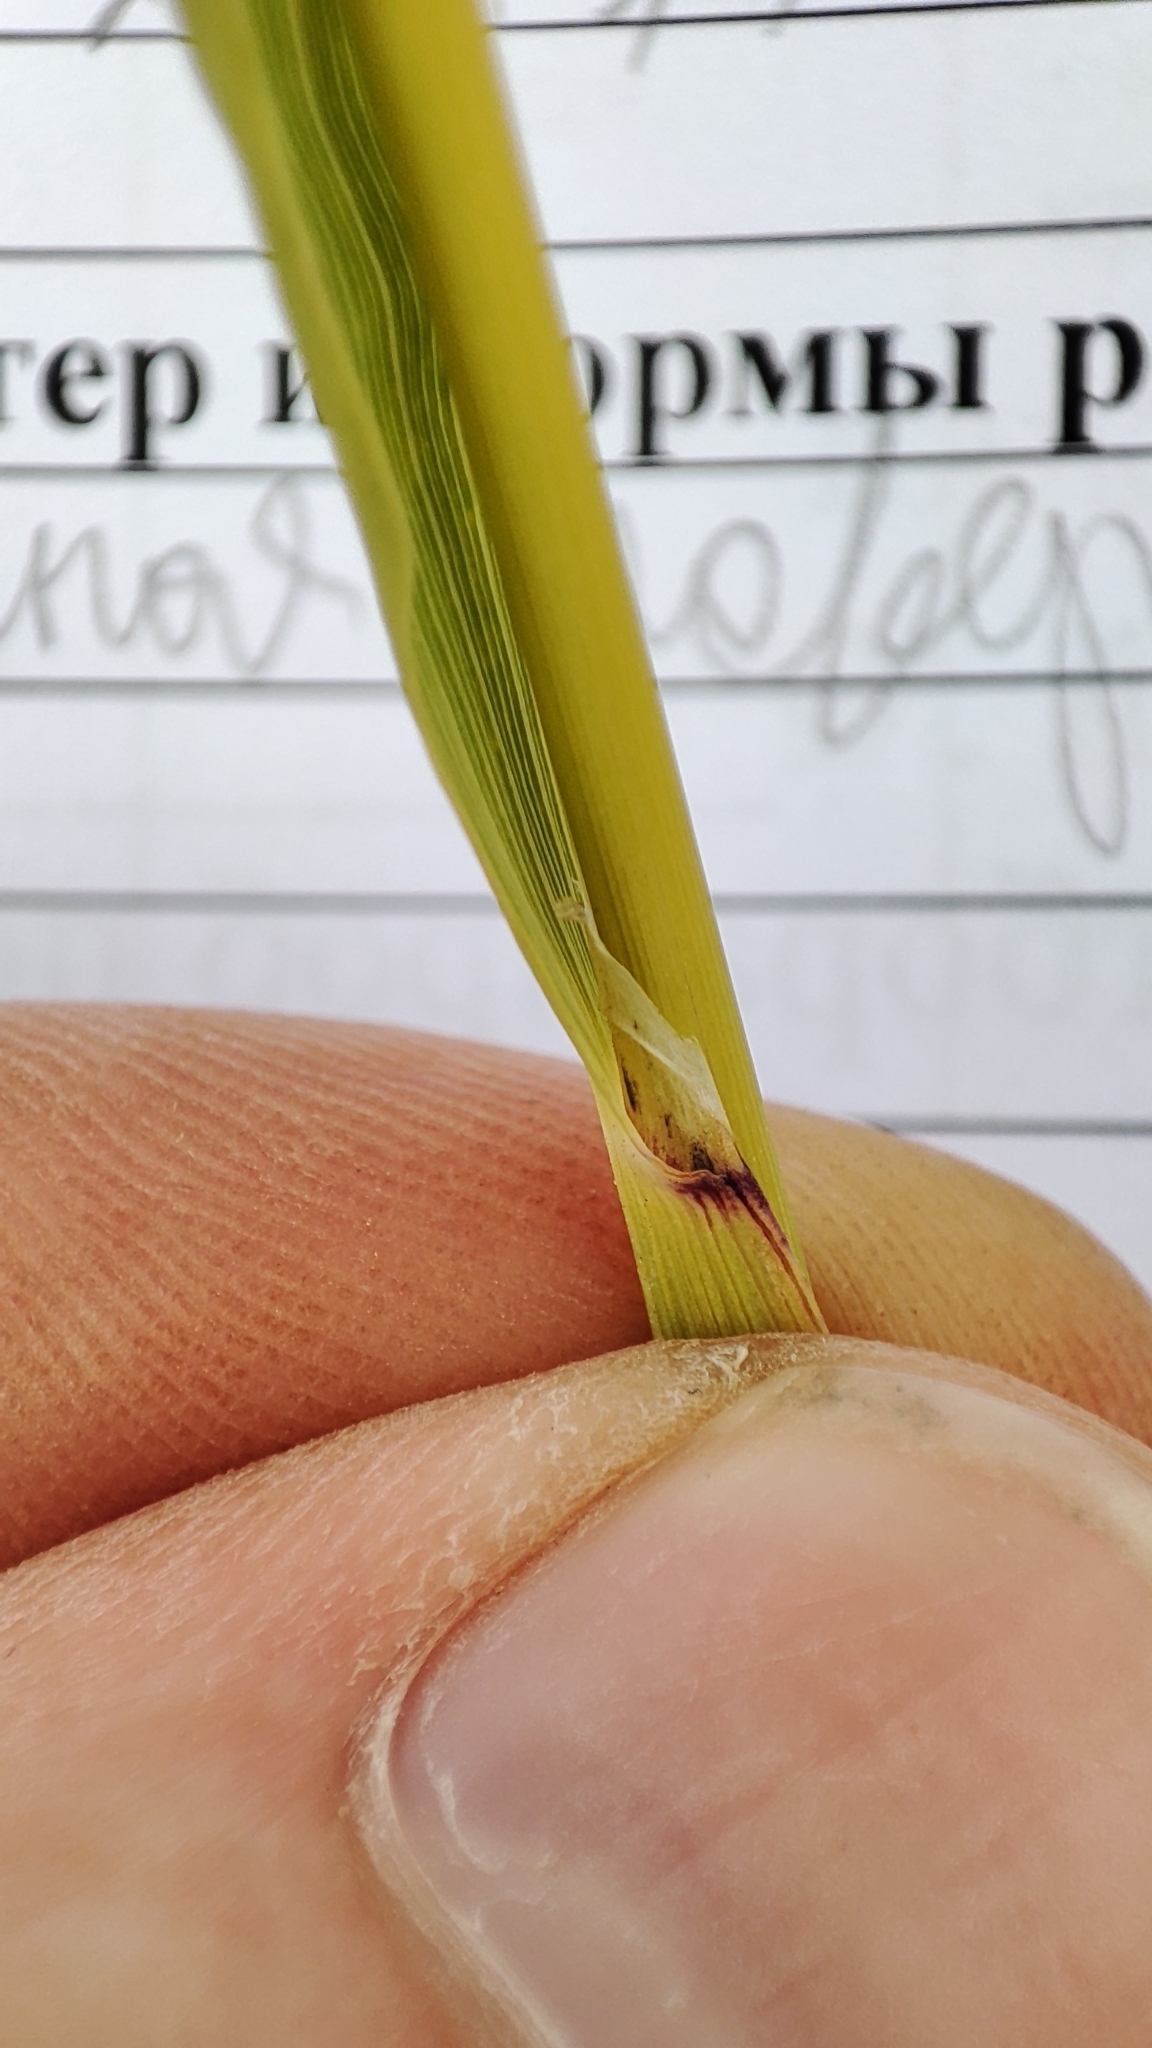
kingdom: Plantae
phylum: Tracheophyta
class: Liliopsida
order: Poales
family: Poaceae
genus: Calamagrostis
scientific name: Calamagrostis epigejos
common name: Wood small-reed
